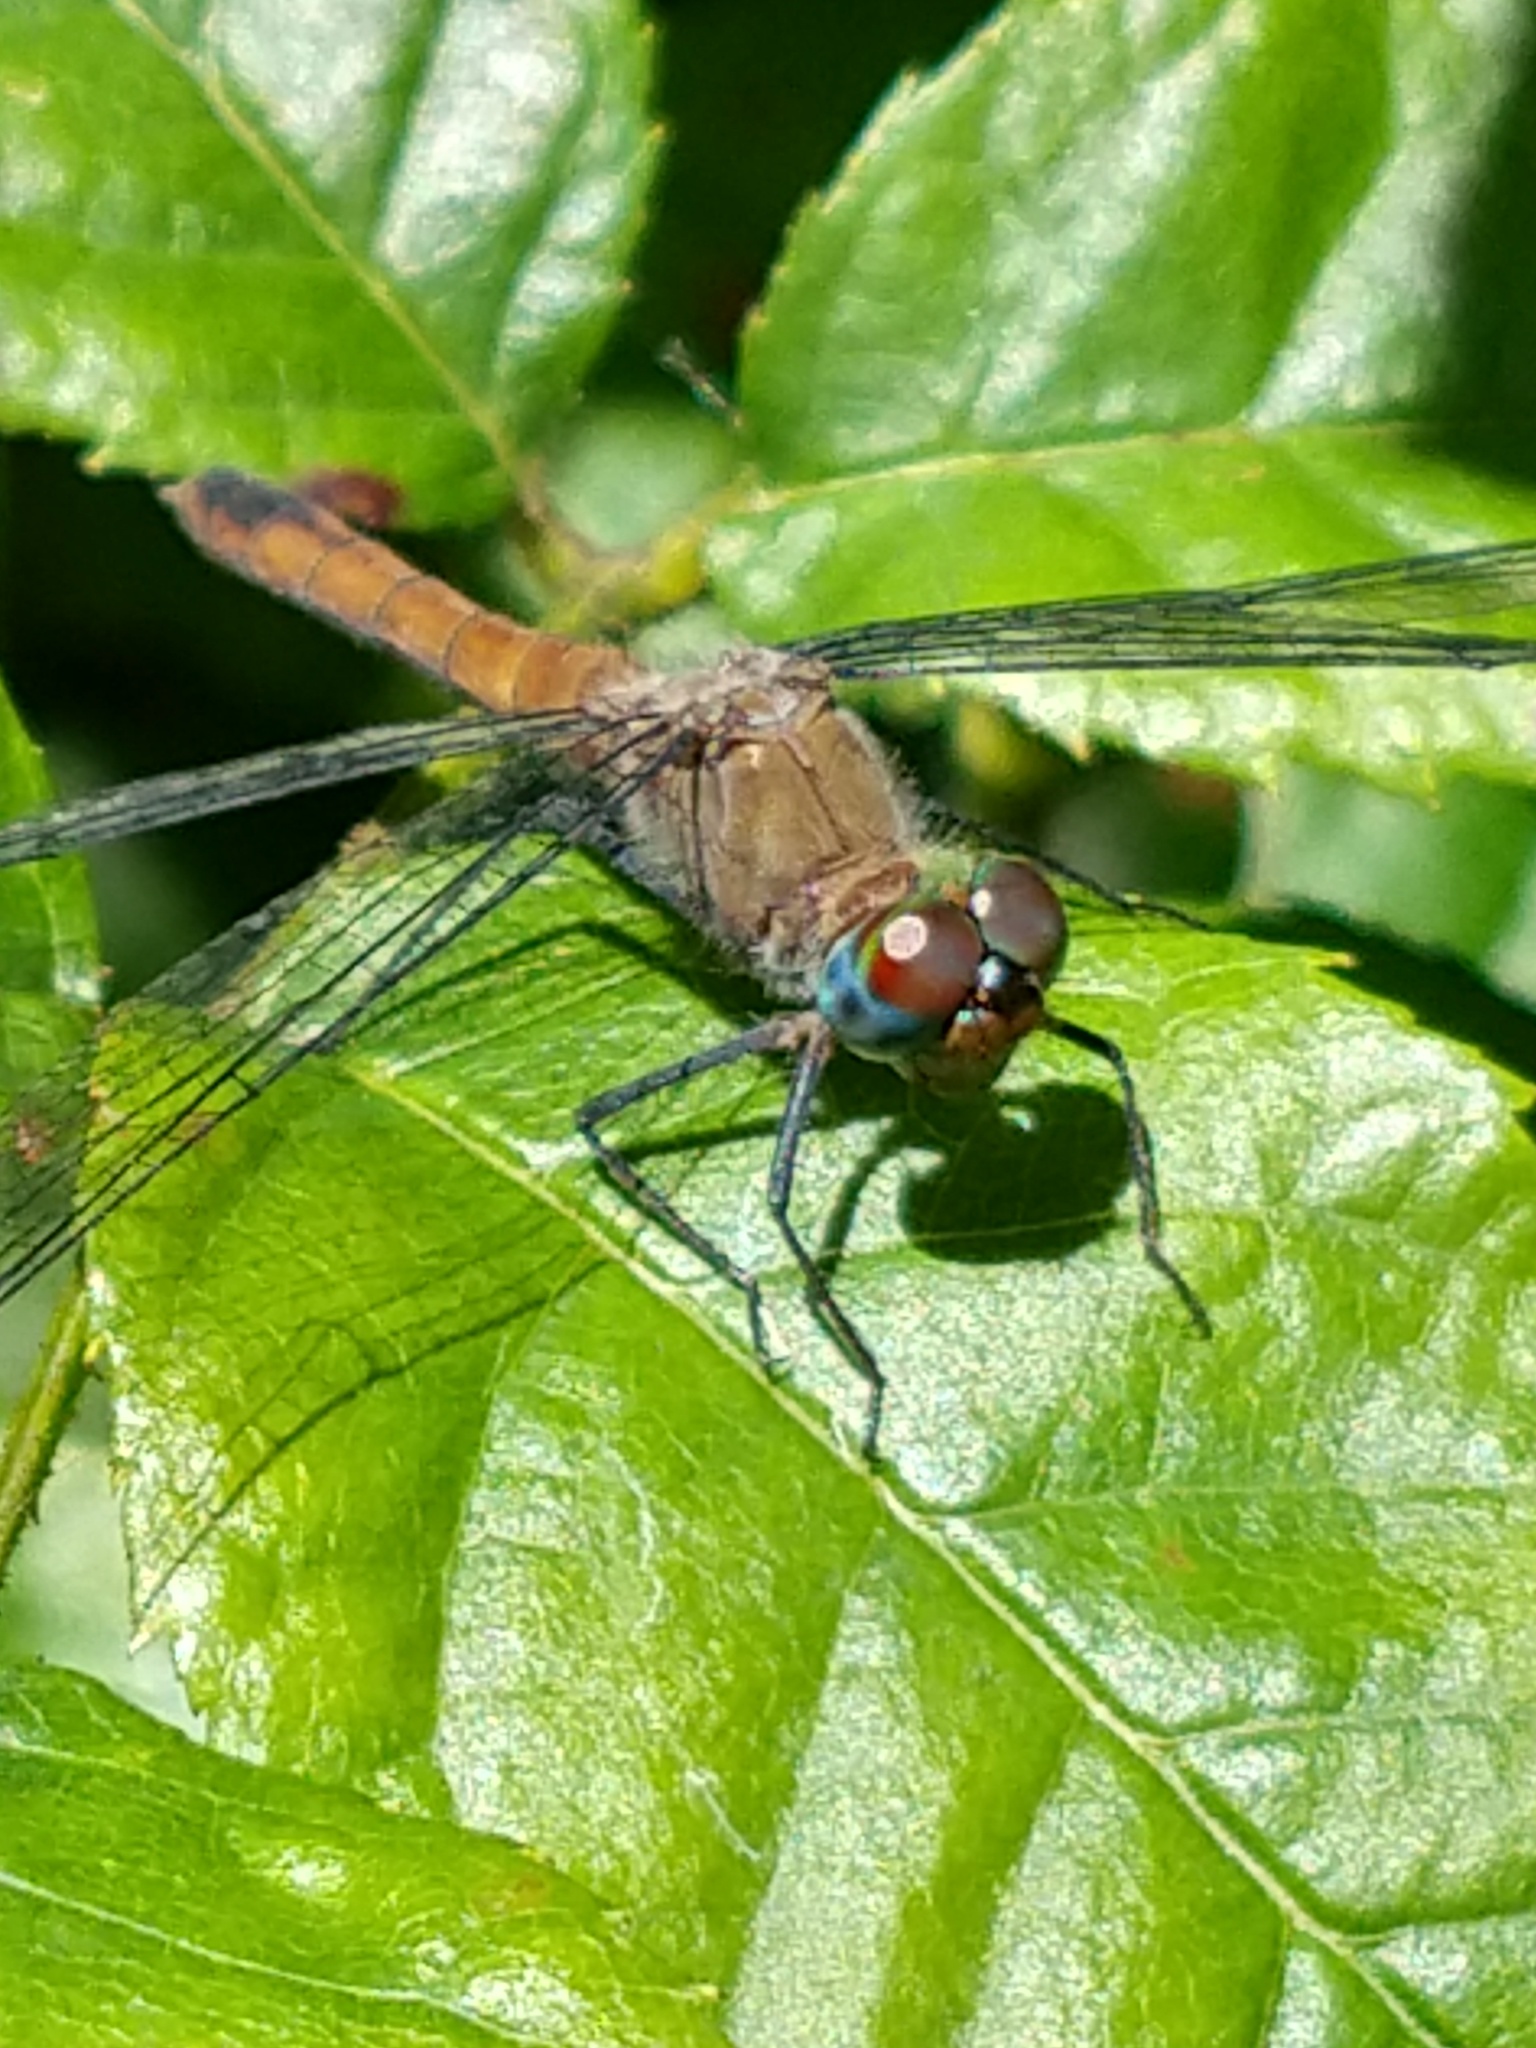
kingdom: Animalia
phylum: Arthropoda
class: Insecta
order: Odonata
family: Libellulidae
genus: Oligoclada
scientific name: Oligoclada laetitia
